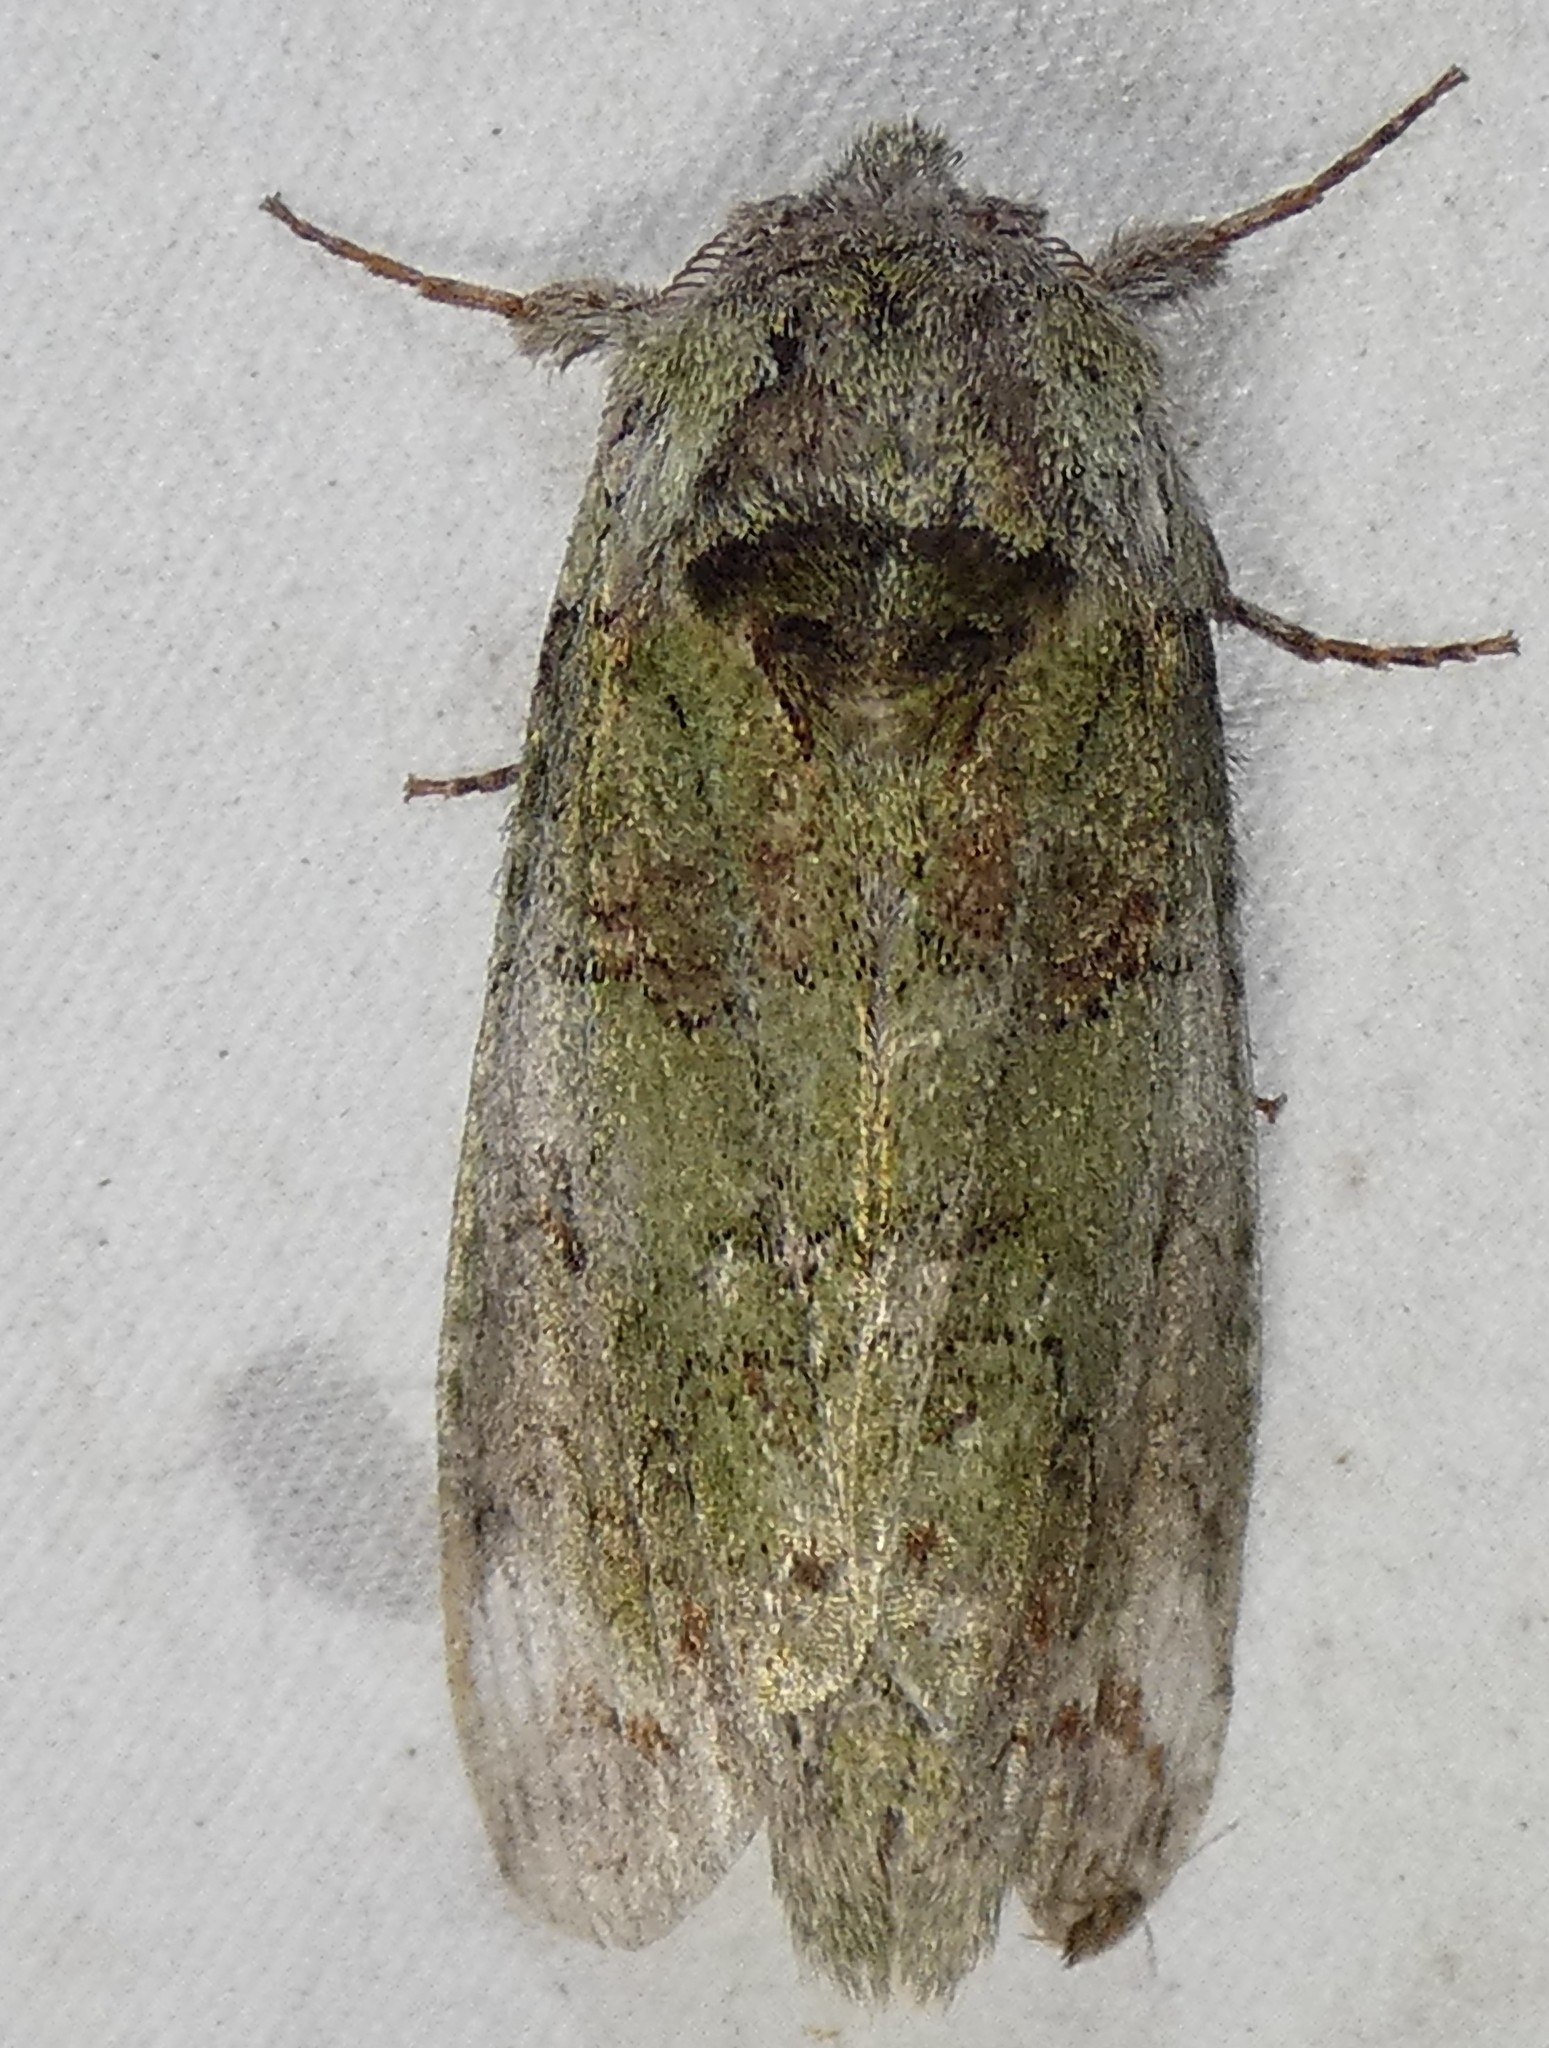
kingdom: Animalia
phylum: Arthropoda
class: Insecta
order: Lepidoptera
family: Notodontidae
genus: Heterocampa
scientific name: Heterocampa astarte
